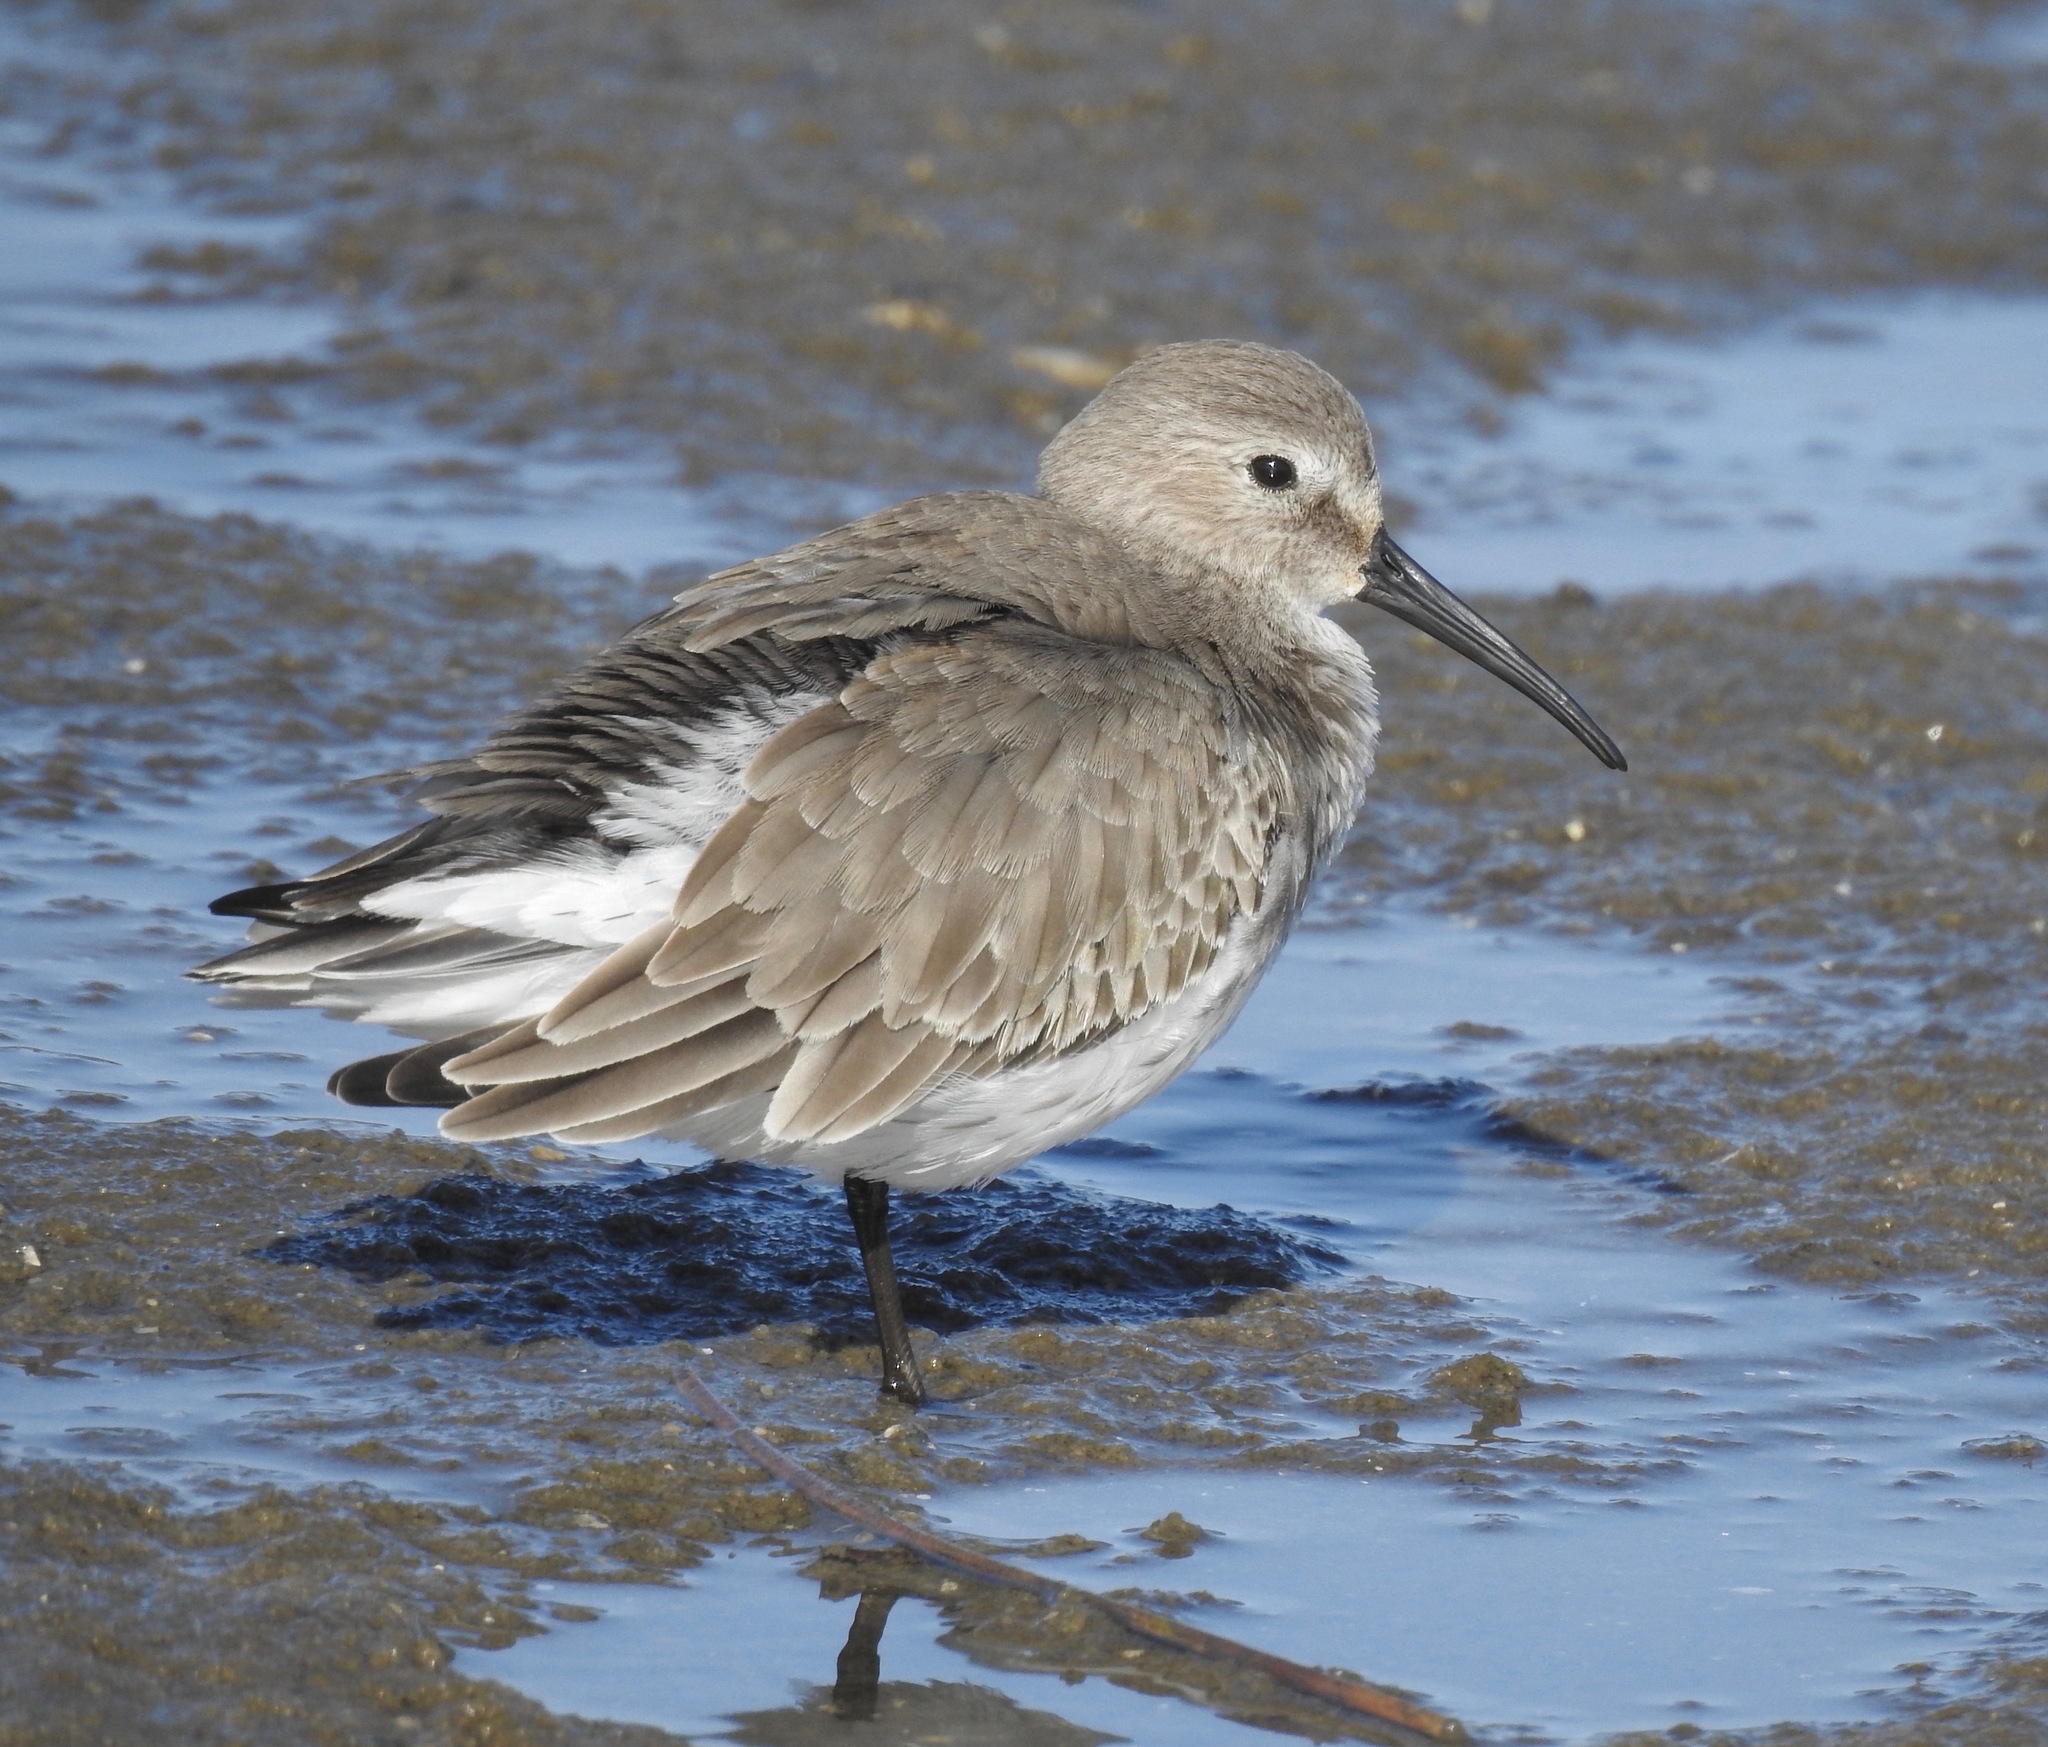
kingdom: Animalia
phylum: Chordata
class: Aves
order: Charadriiformes
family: Scolopacidae
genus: Calidris
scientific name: Calidris alpina
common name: Dunlin
